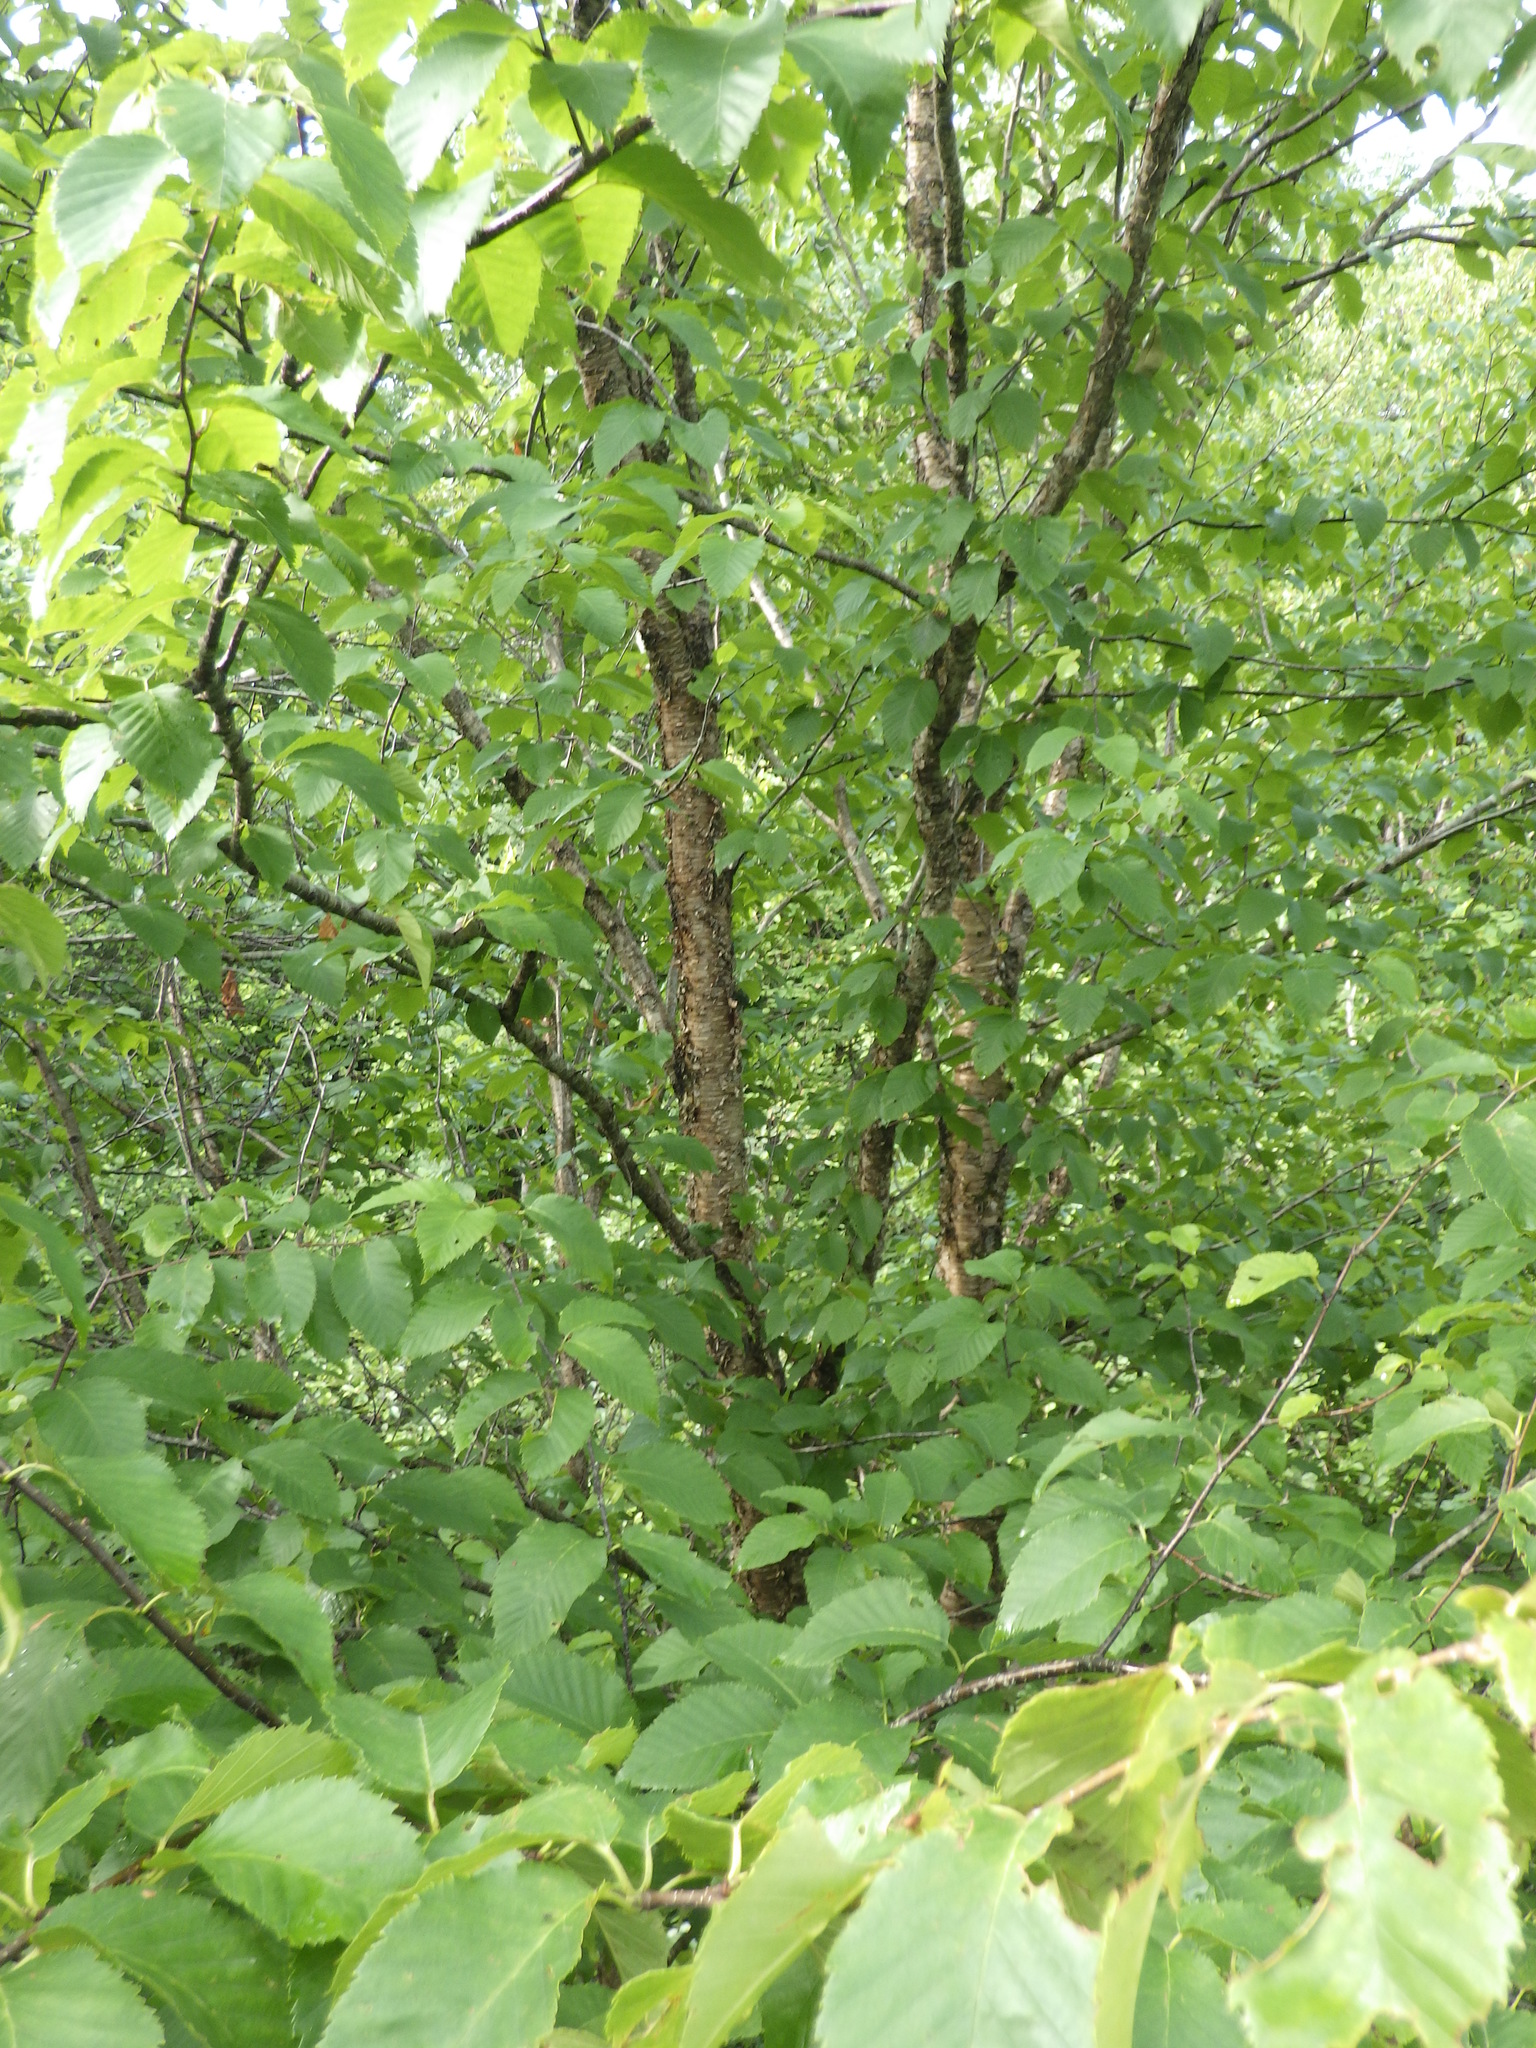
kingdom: Plantae
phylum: Tracheophyta
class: Magnoliopsida
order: Fagales
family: Betulaceae
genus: Betula
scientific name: Betula alleghaniensis
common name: Yellow birch
